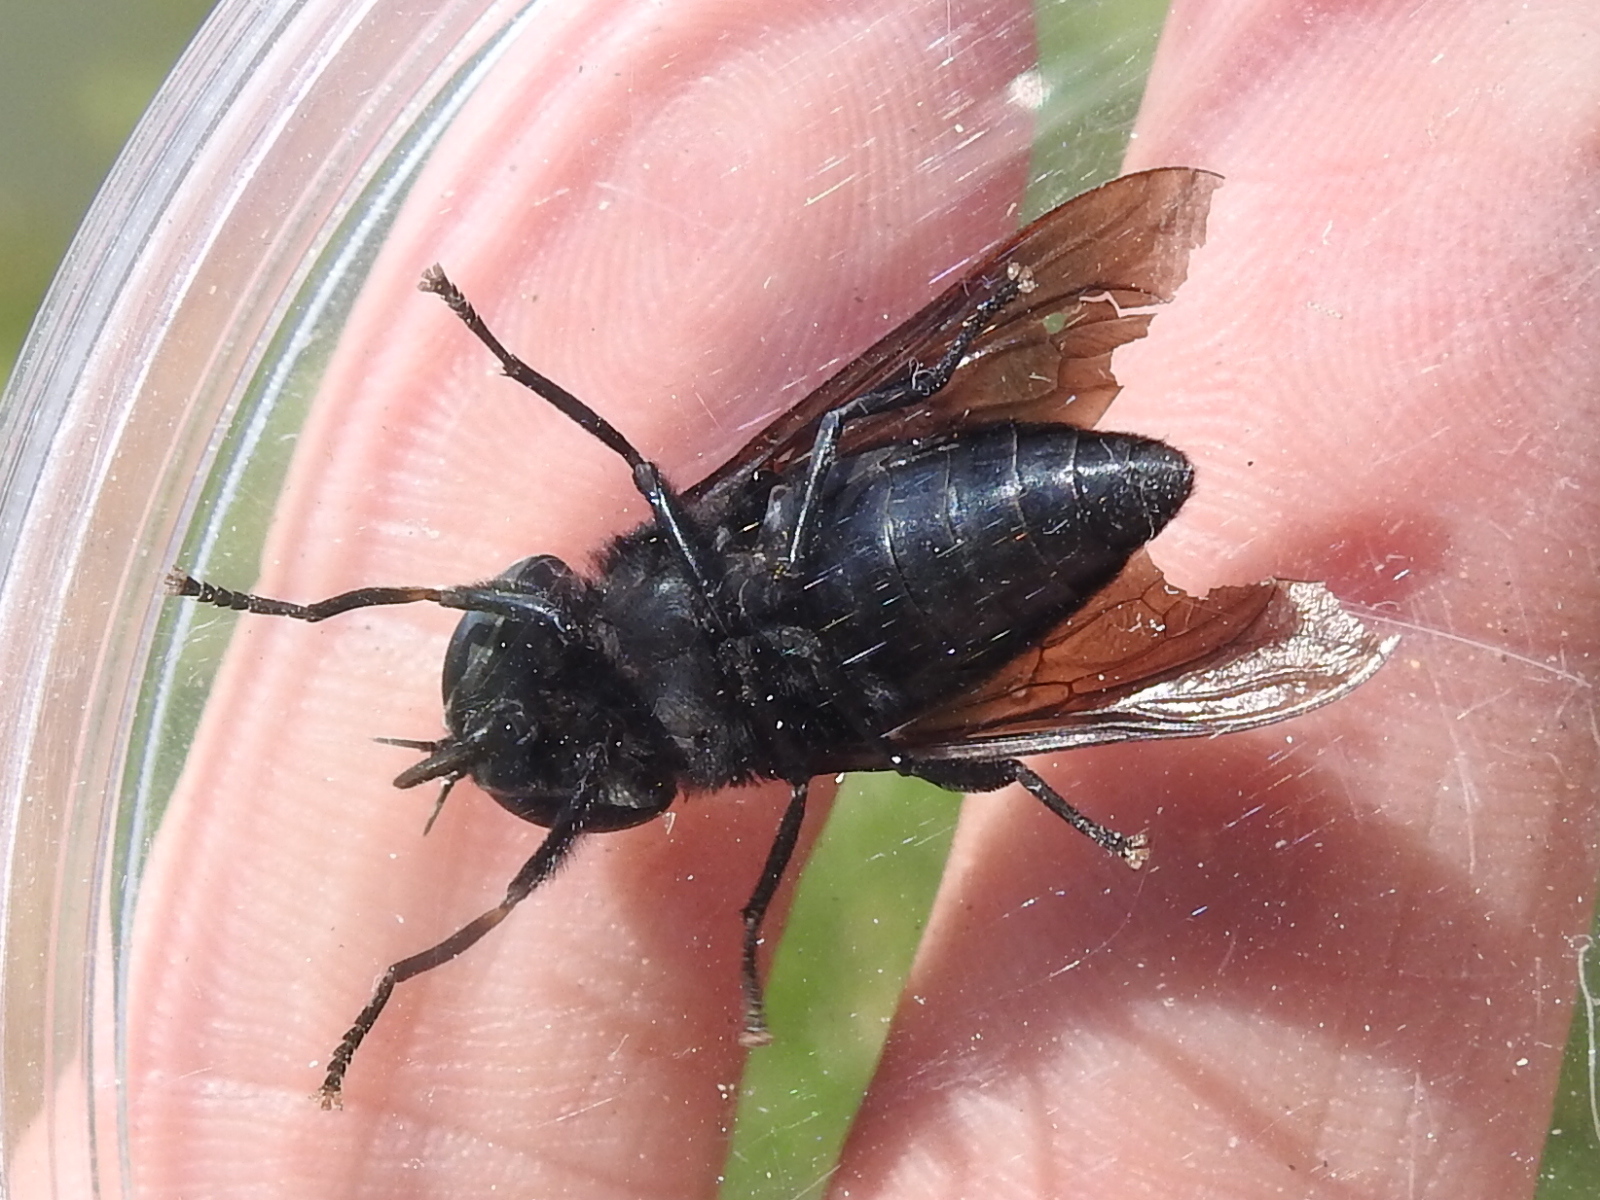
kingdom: Animalia
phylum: Arthropoda
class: Insecta
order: Diptera
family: Tabanidae
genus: Tabanus
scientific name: Tabanus atratus
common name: Black horse fly
